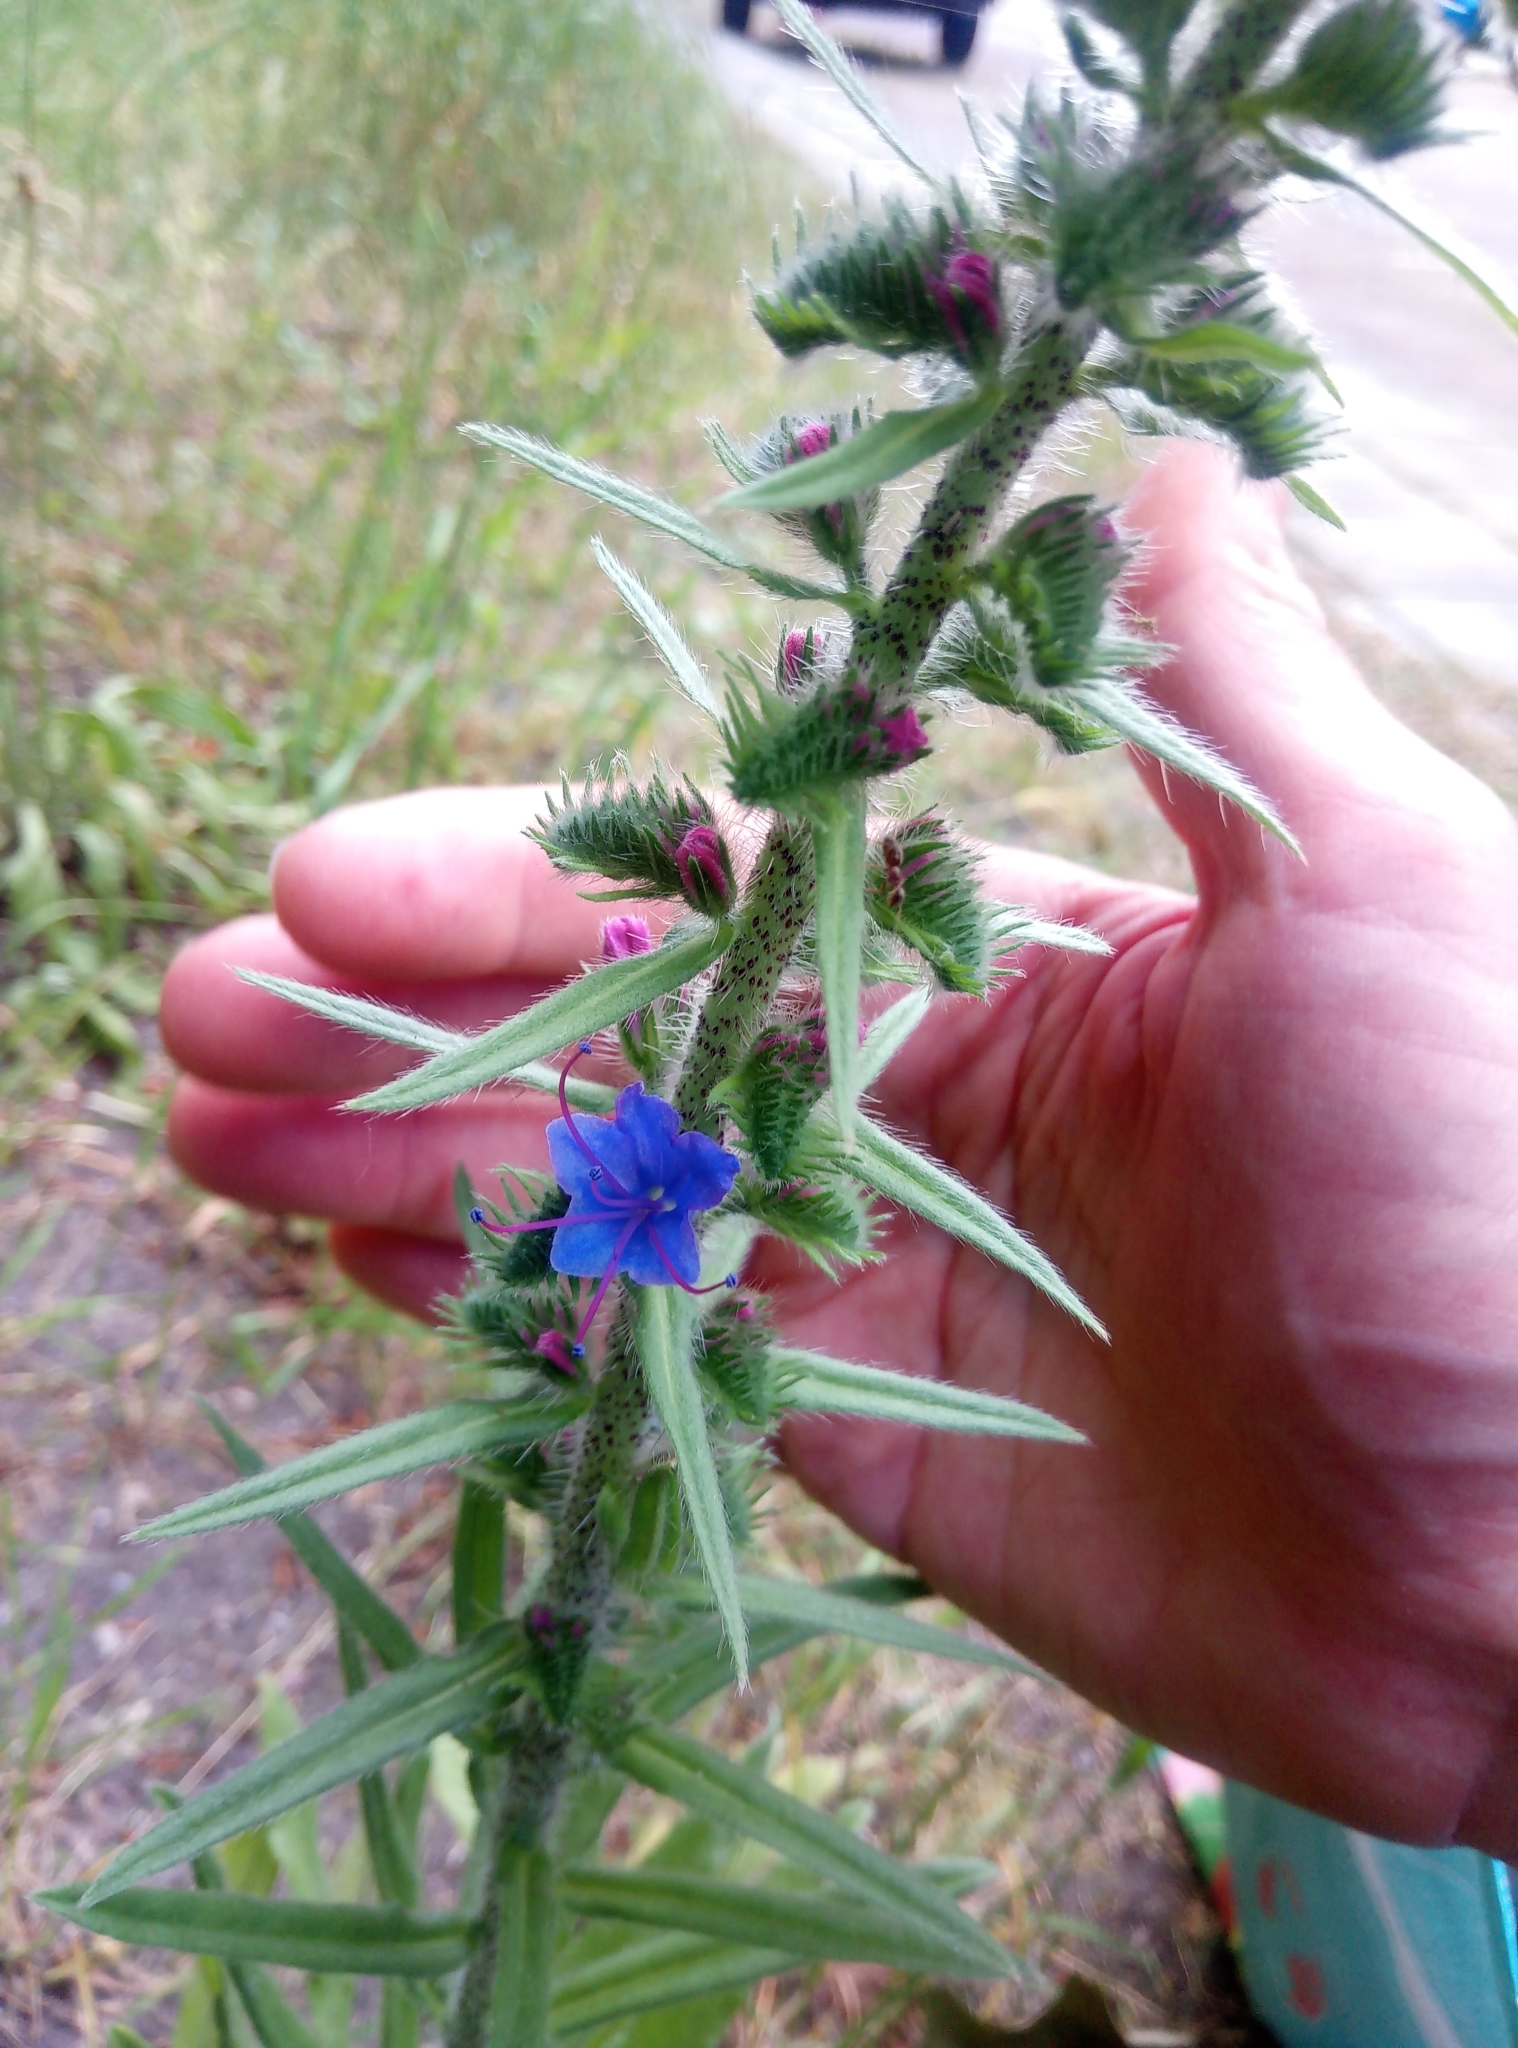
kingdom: Plantae
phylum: Tracheophyta
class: Magnoliopsida
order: Boraginales
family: Boraginaceae
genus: Echium
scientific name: Echium vulgare
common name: Common viper's bugloss
